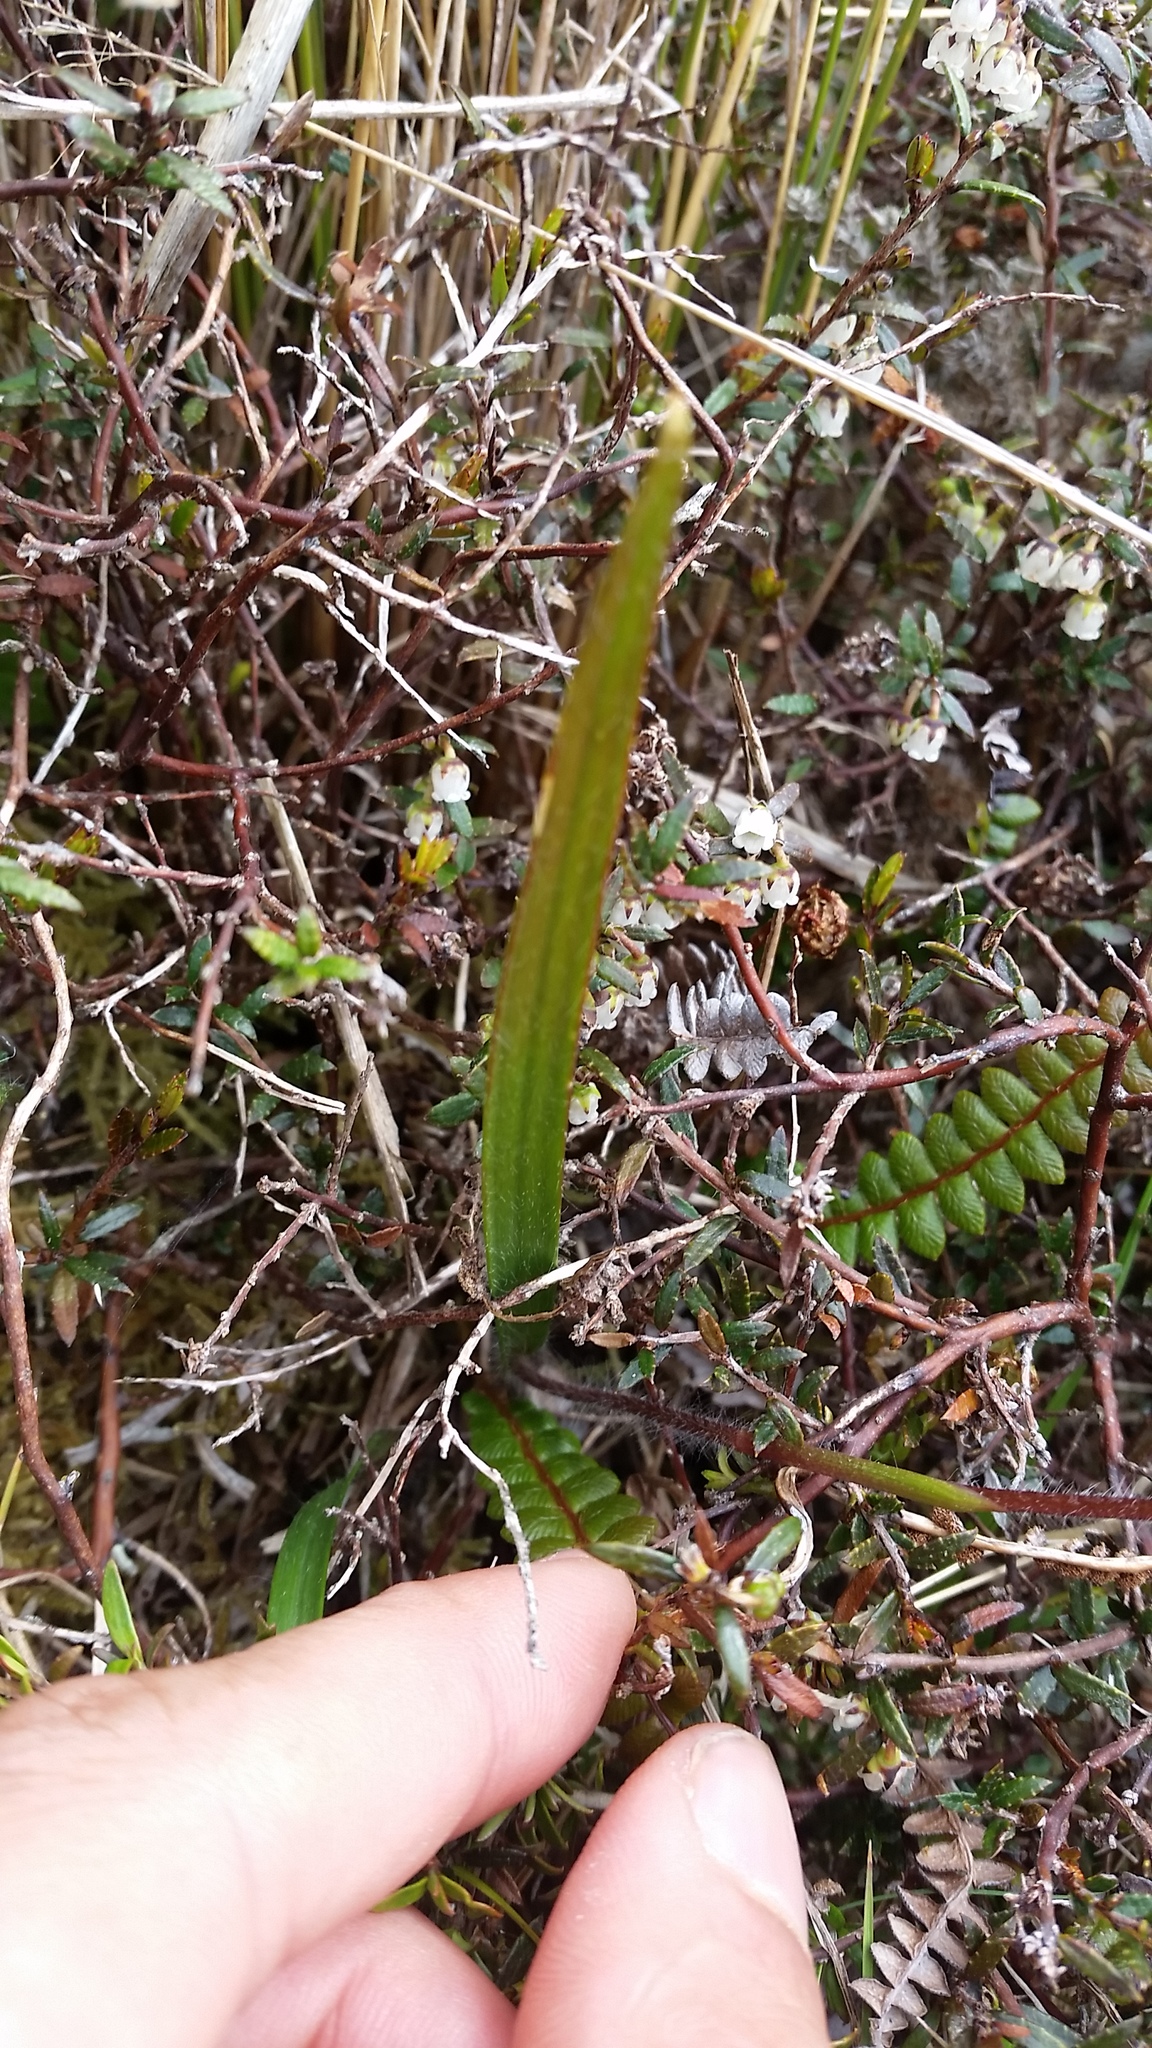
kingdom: Plantae
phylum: Tracheophyta
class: Liliopsida
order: Asparagales
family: Orchidaceae
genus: Caladenia
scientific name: Caladenia lyallii
